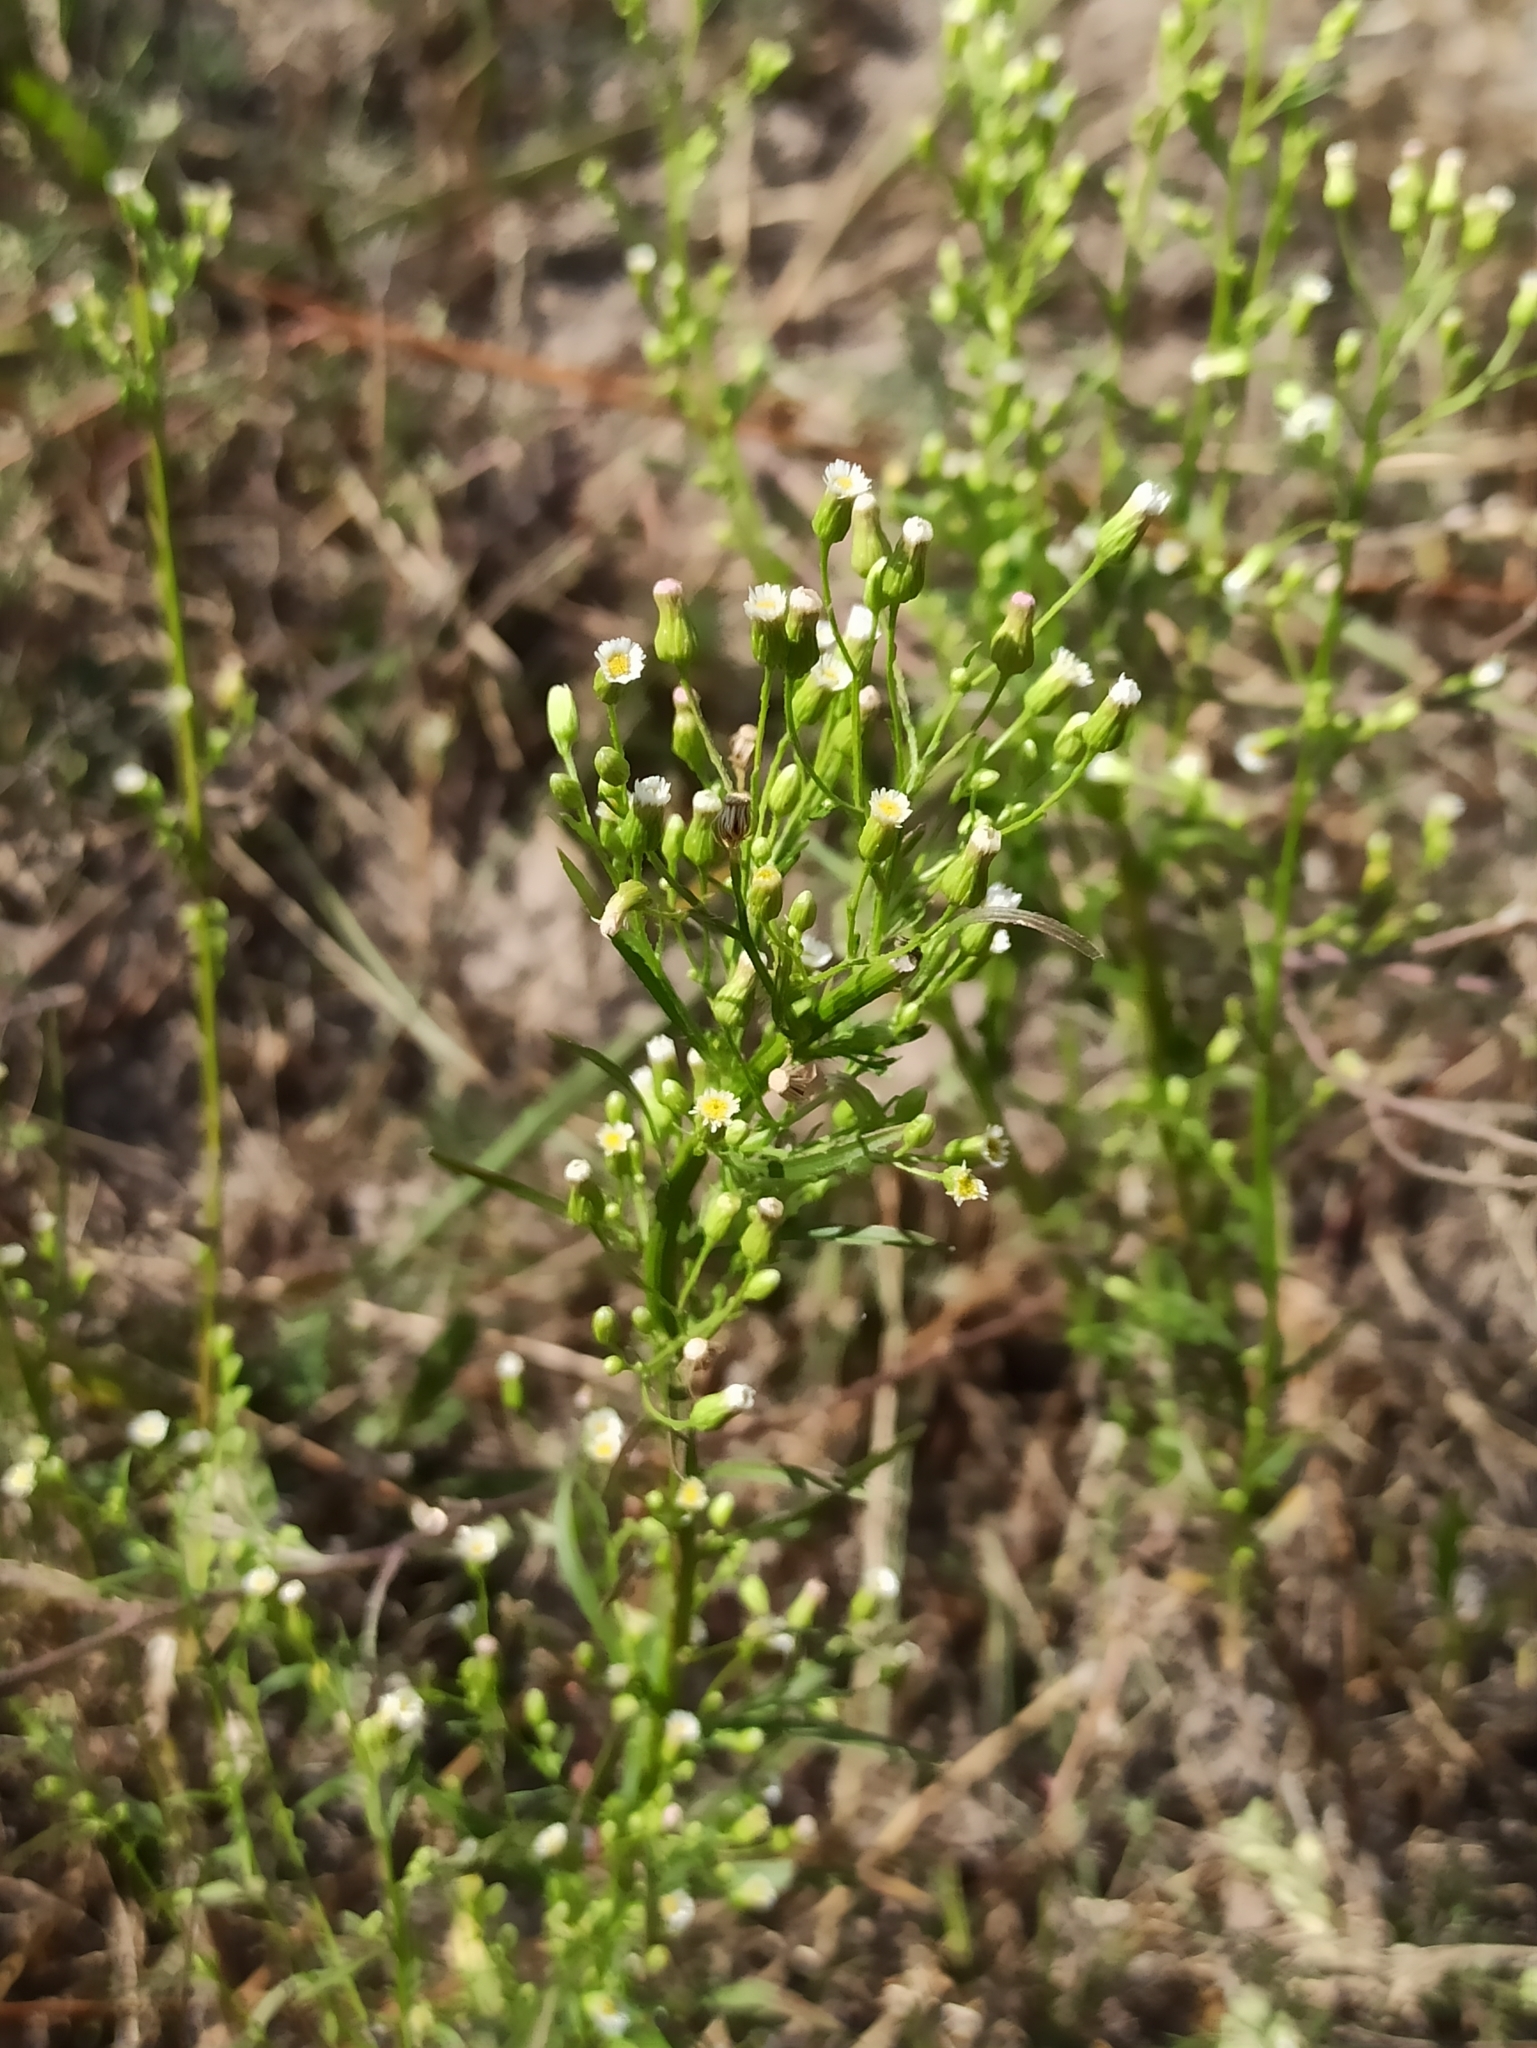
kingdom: Plantae
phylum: Tracheophyta
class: Magnoliopsida
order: Asterales
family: Asteraceae
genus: Erigeron
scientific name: Erigeron canadensis
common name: Canadian fleabane
